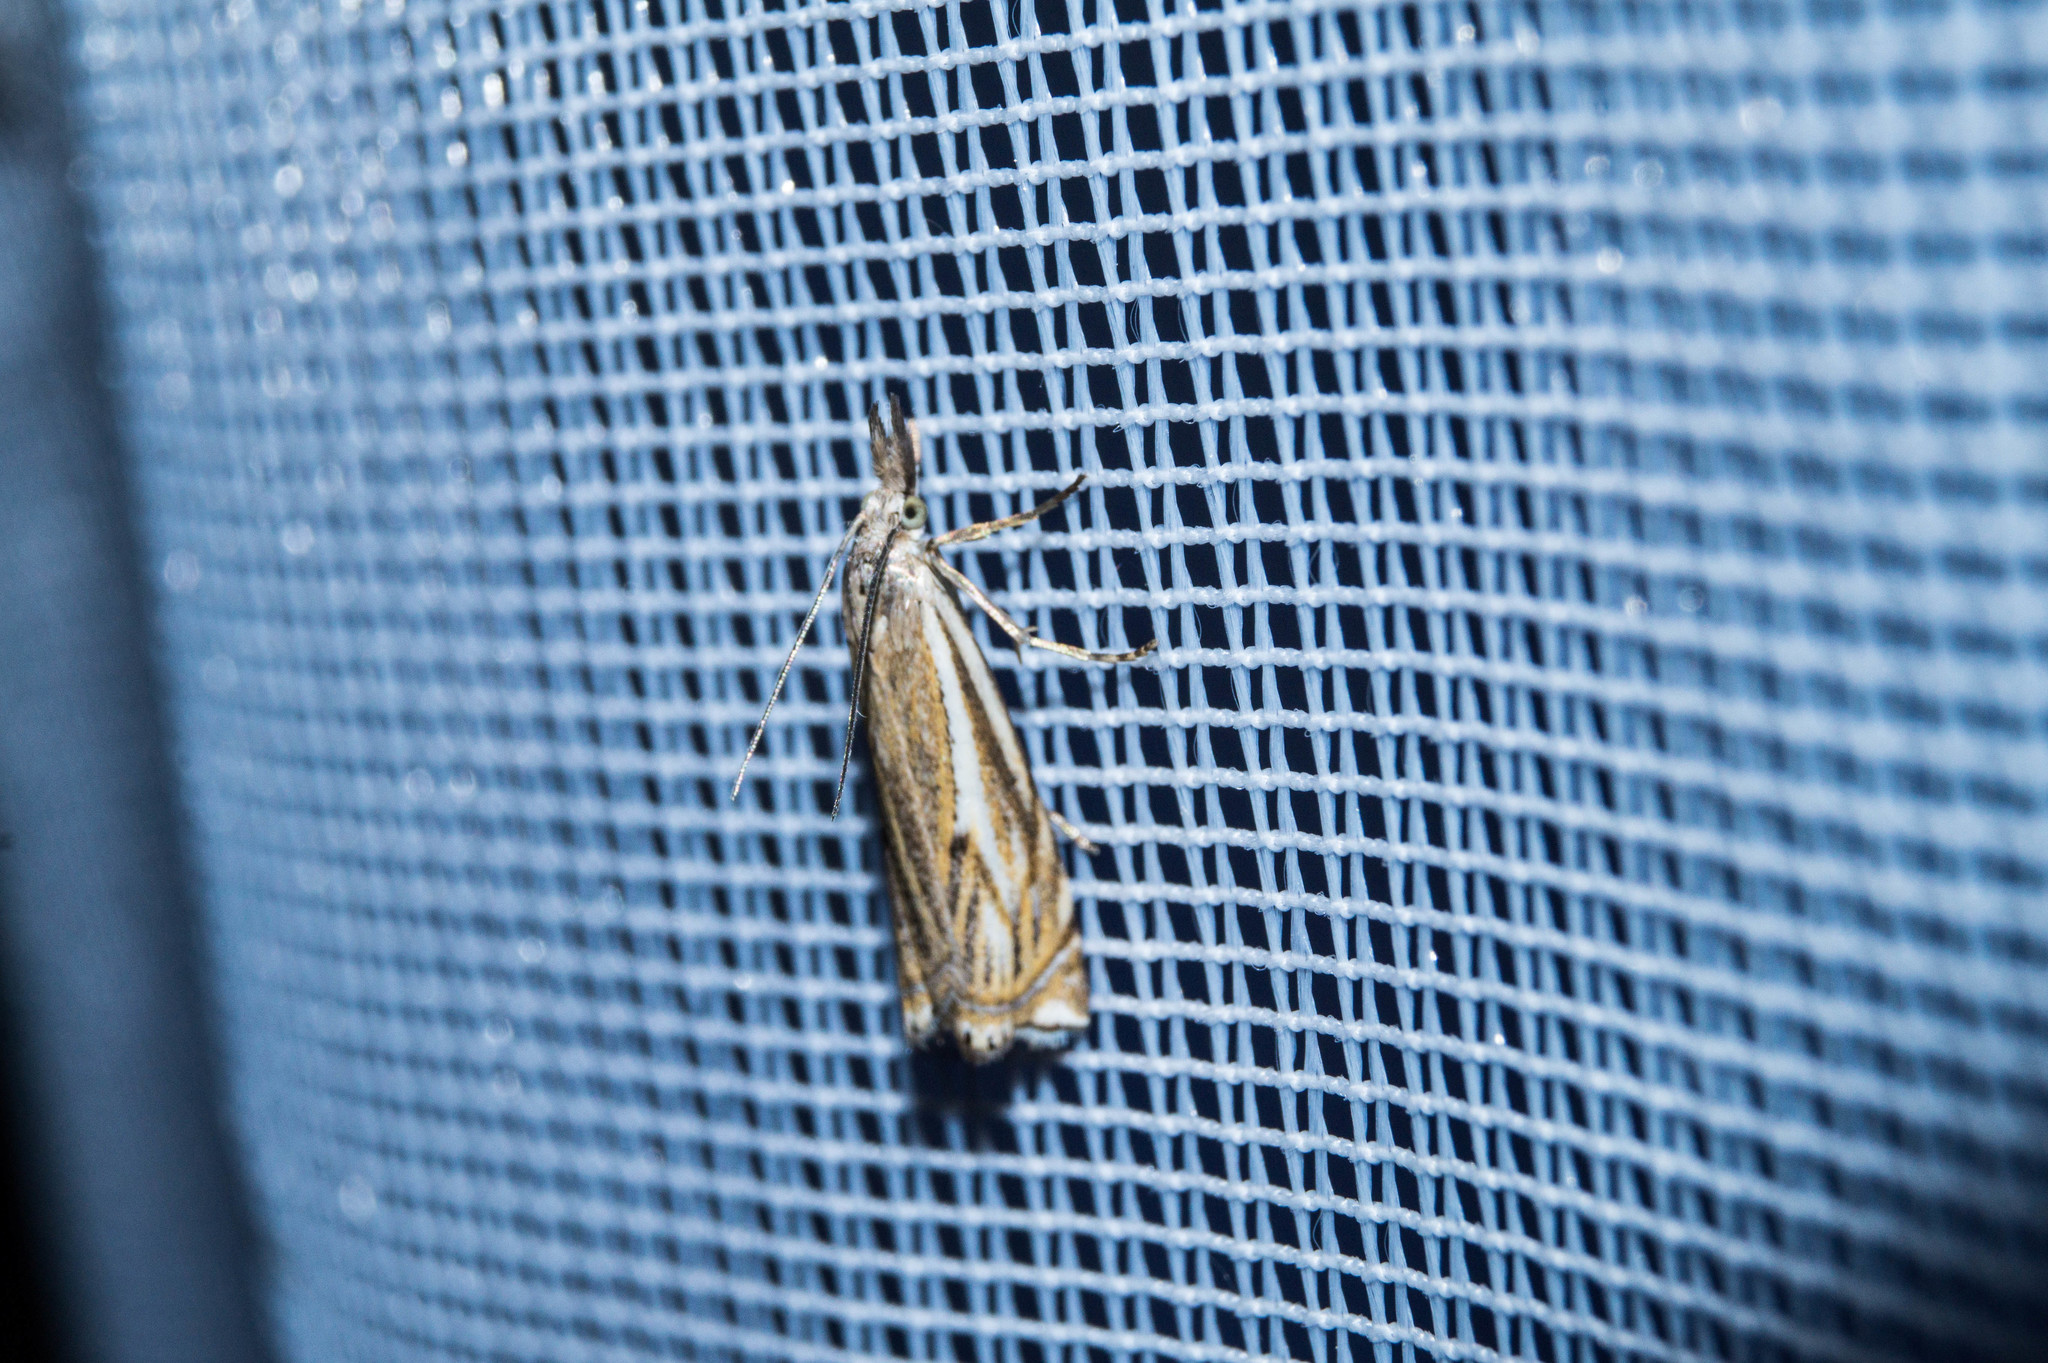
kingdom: Animalia
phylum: Arthropoda
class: Insecta
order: Lepidoptera
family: Crambidae
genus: Crambus
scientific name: Crambus nemorella
